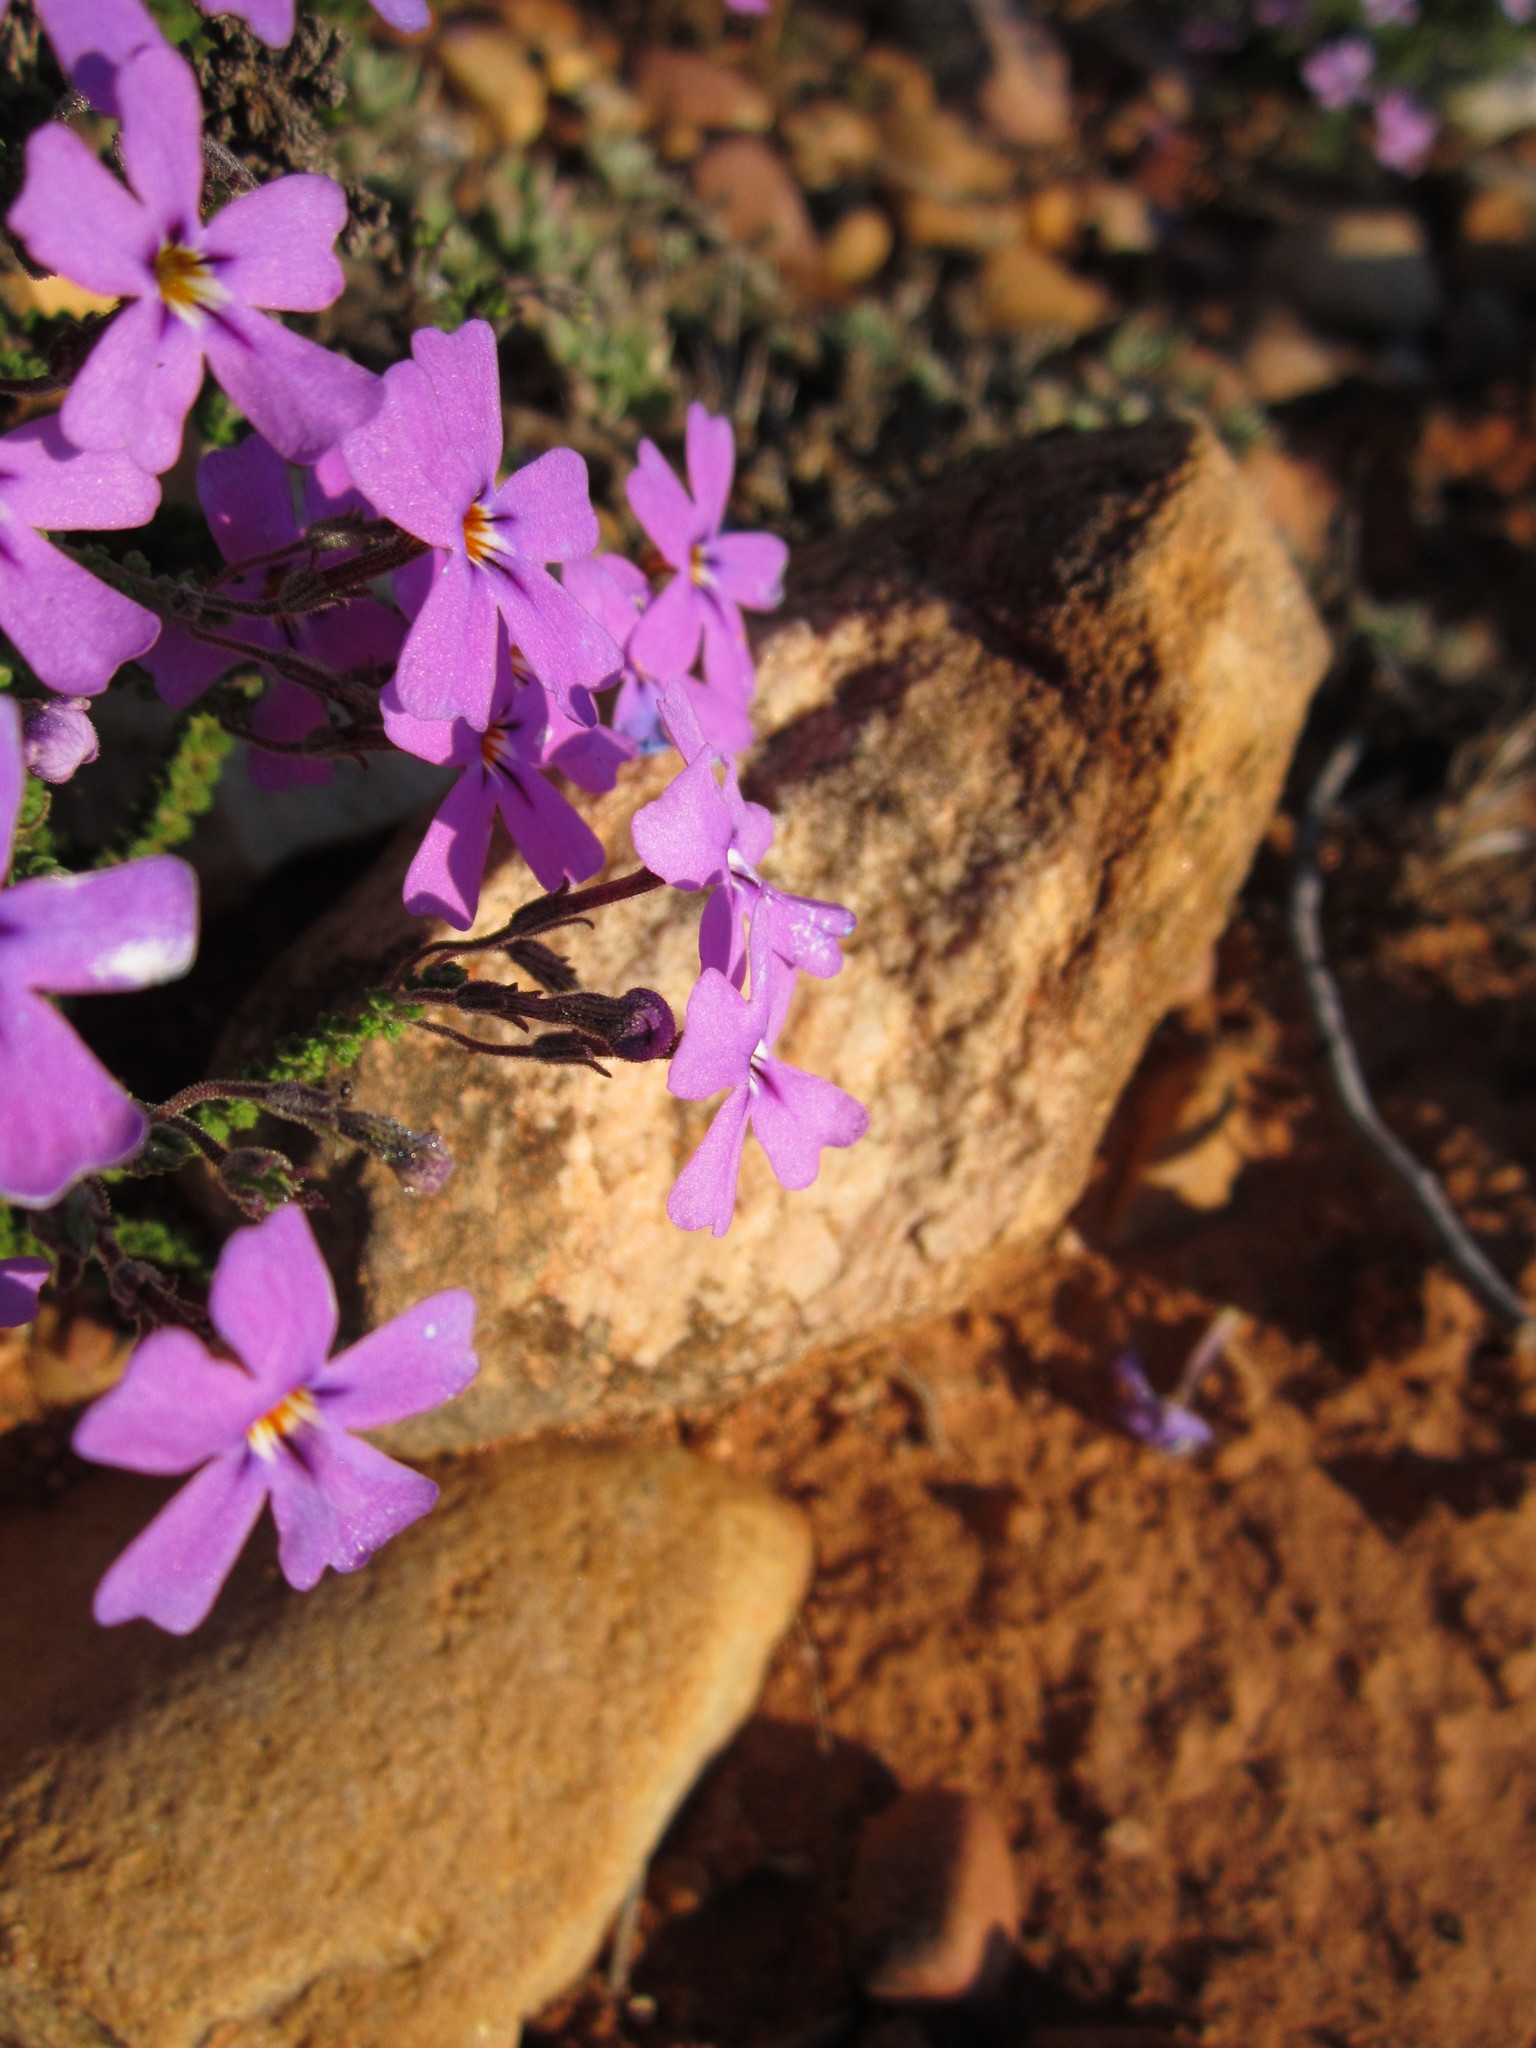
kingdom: Plantae
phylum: Tracheophyta
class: Magnoliopsida
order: Lamiales
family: Scrophulariaceae
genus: Jamesbrittenia
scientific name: Jamesbrittenia microphylla
